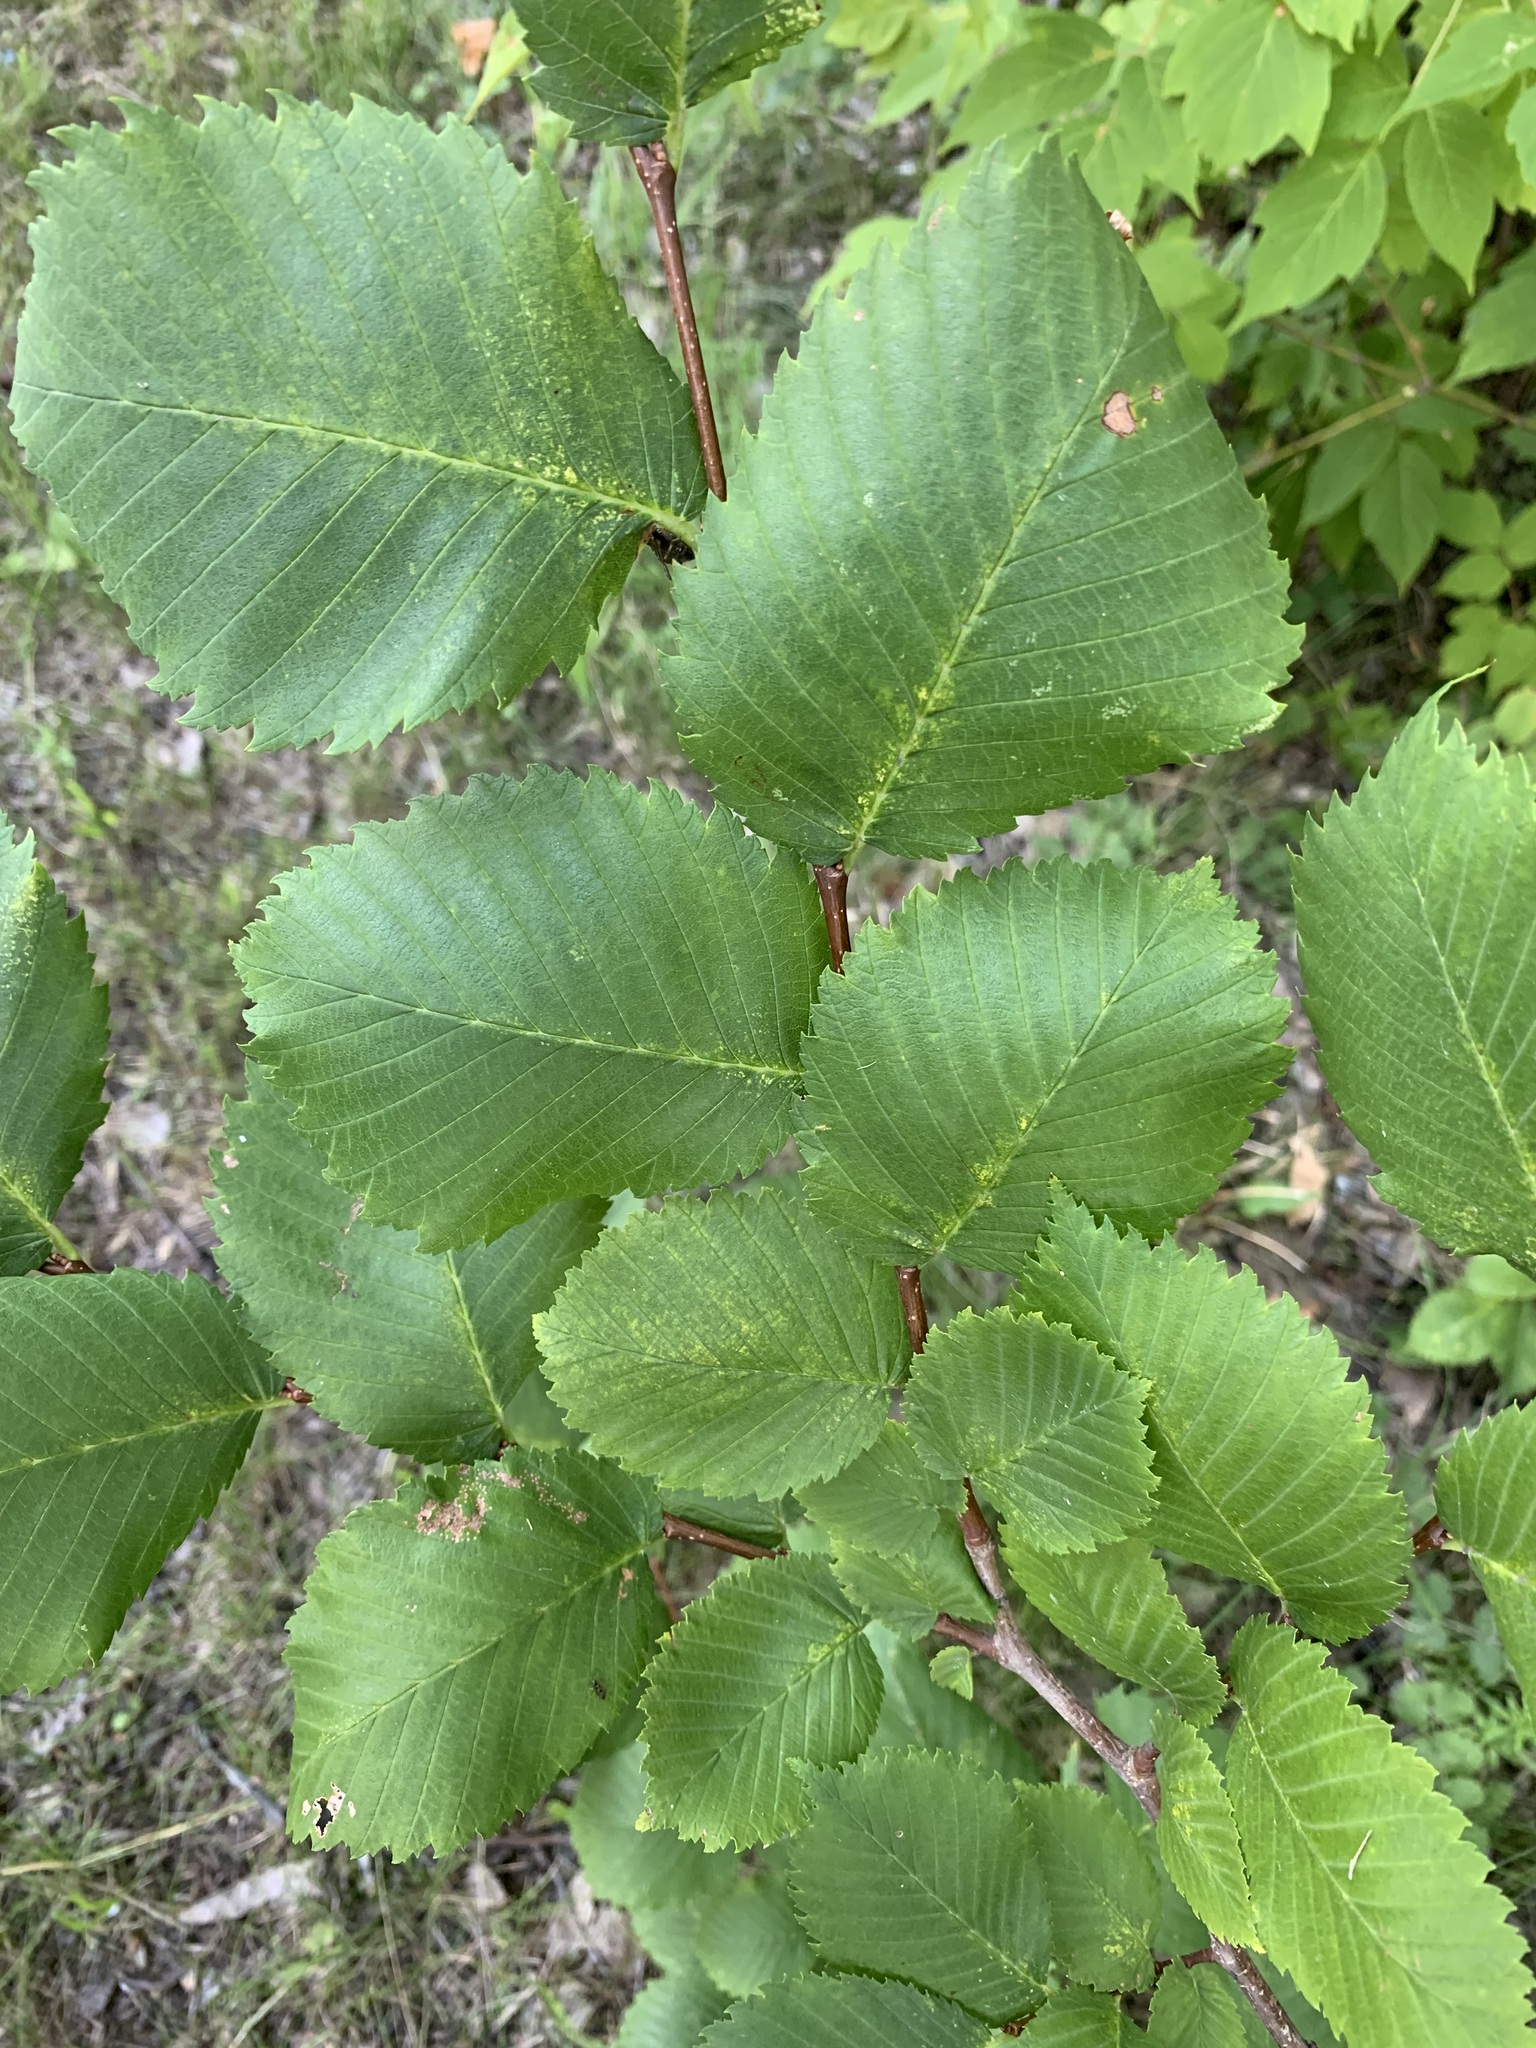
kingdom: Plantae
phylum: Tracheophyta
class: Magnoliopsida
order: Rosales
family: Ulmaceae
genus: Ulmus
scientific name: Ulmus laevis
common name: European white-elm
